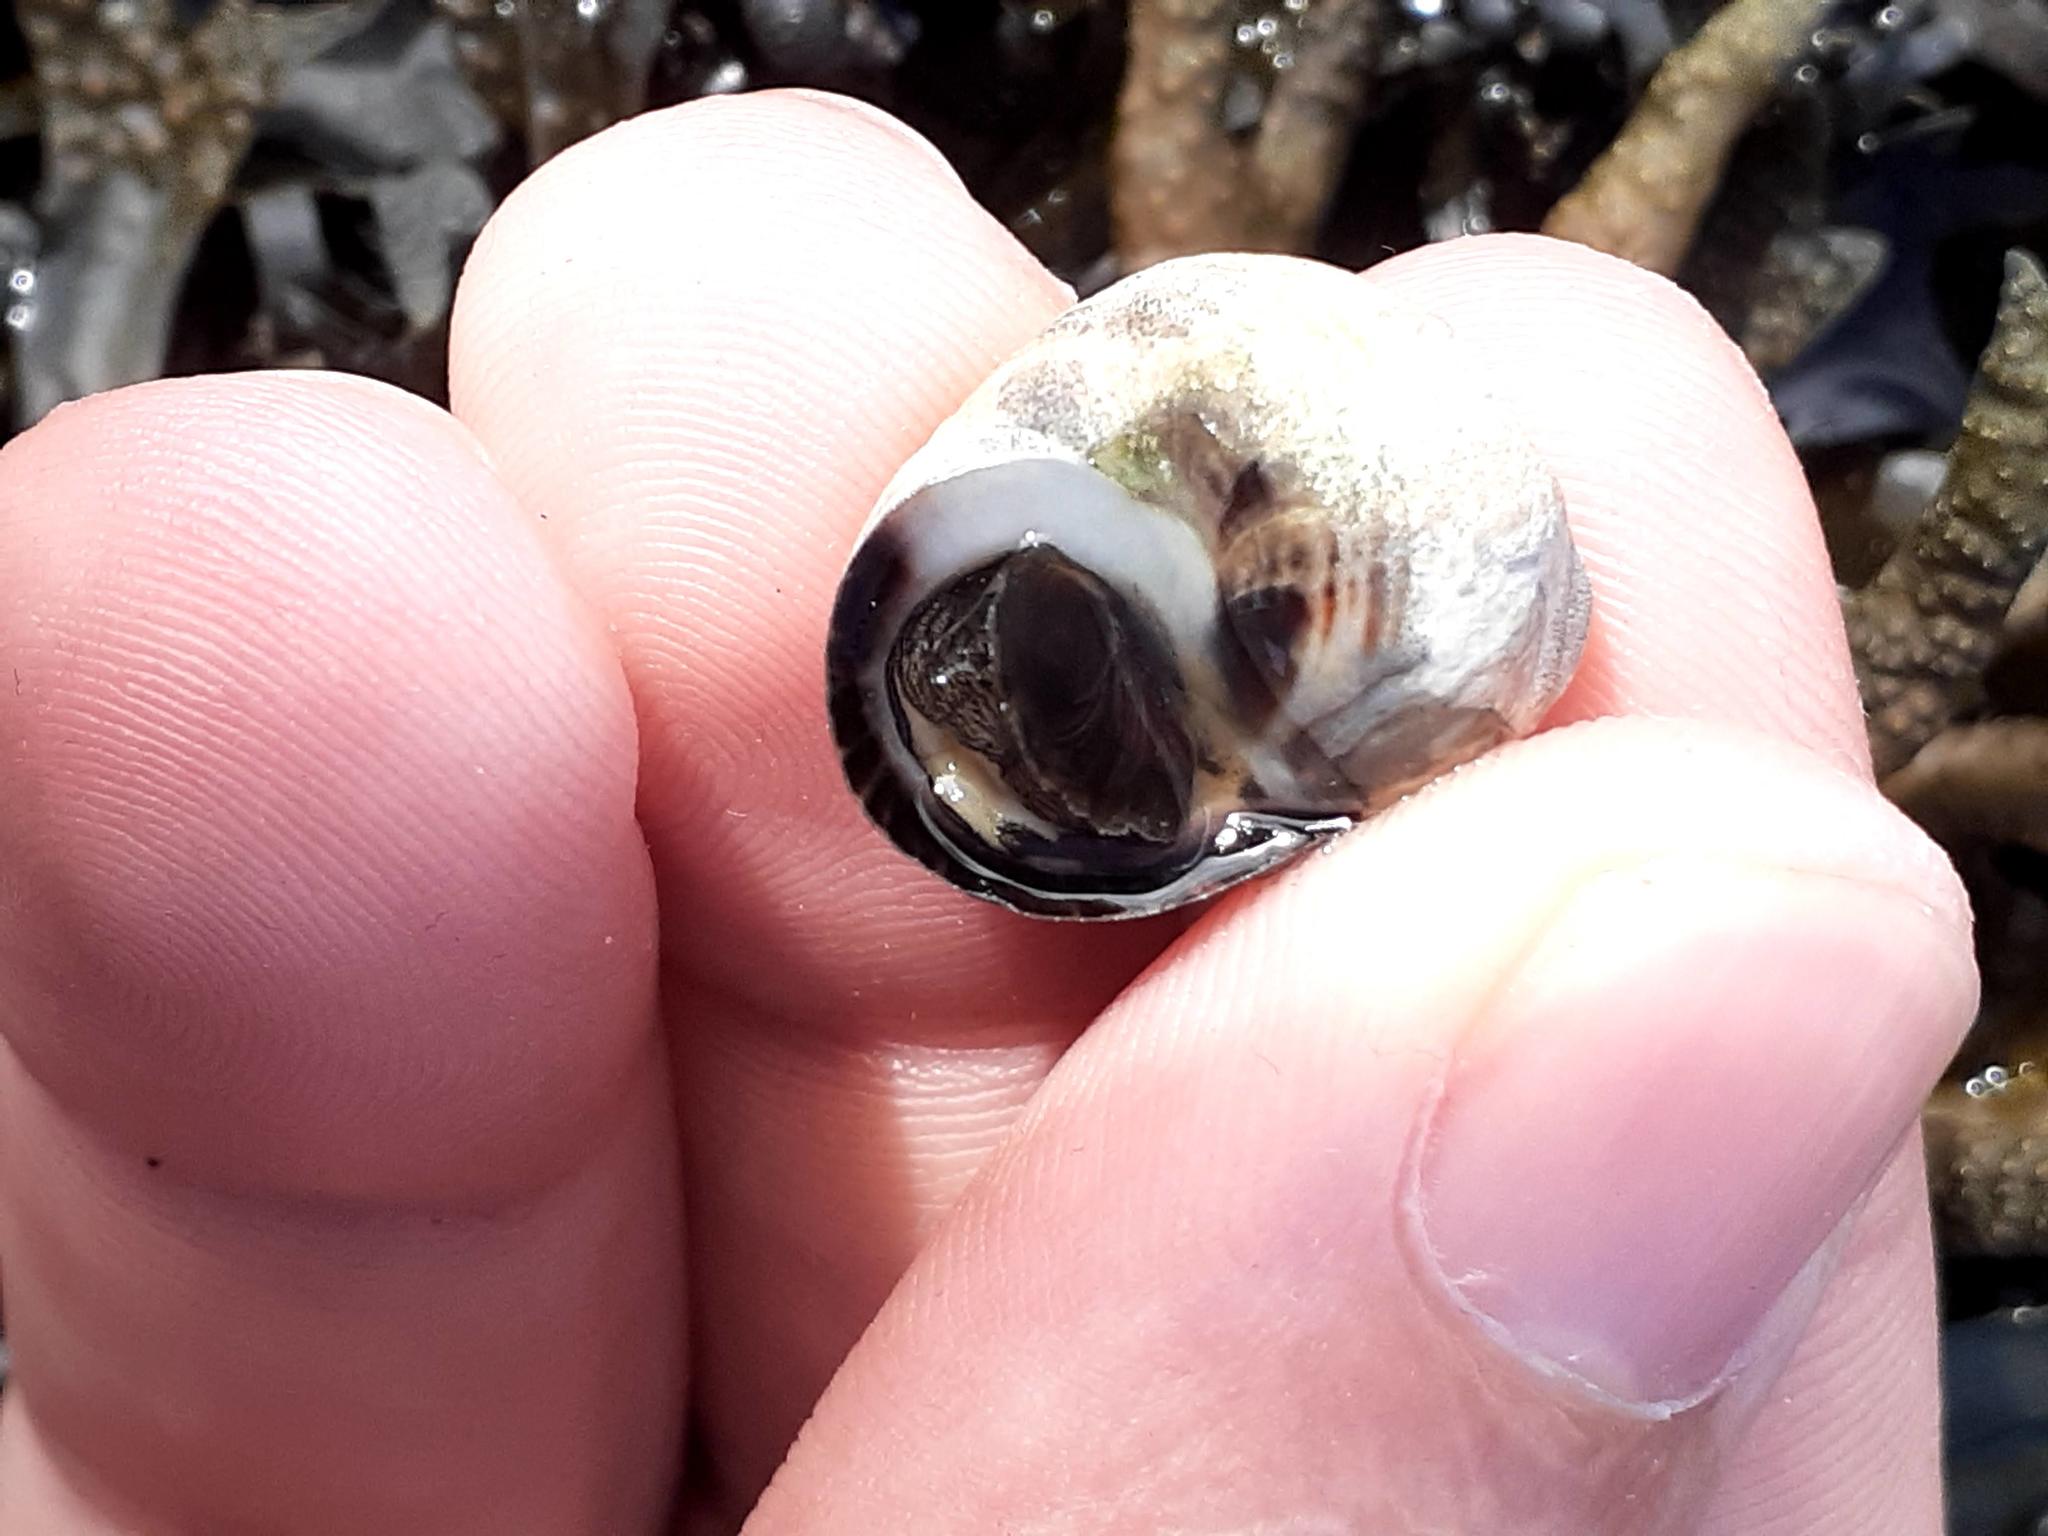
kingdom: Animalia
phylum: Mollusca
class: Gastropoda
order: Littorinimorpha
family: Littorinidae
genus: Littorina
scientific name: Littorina littorea
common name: Common periwinkle
